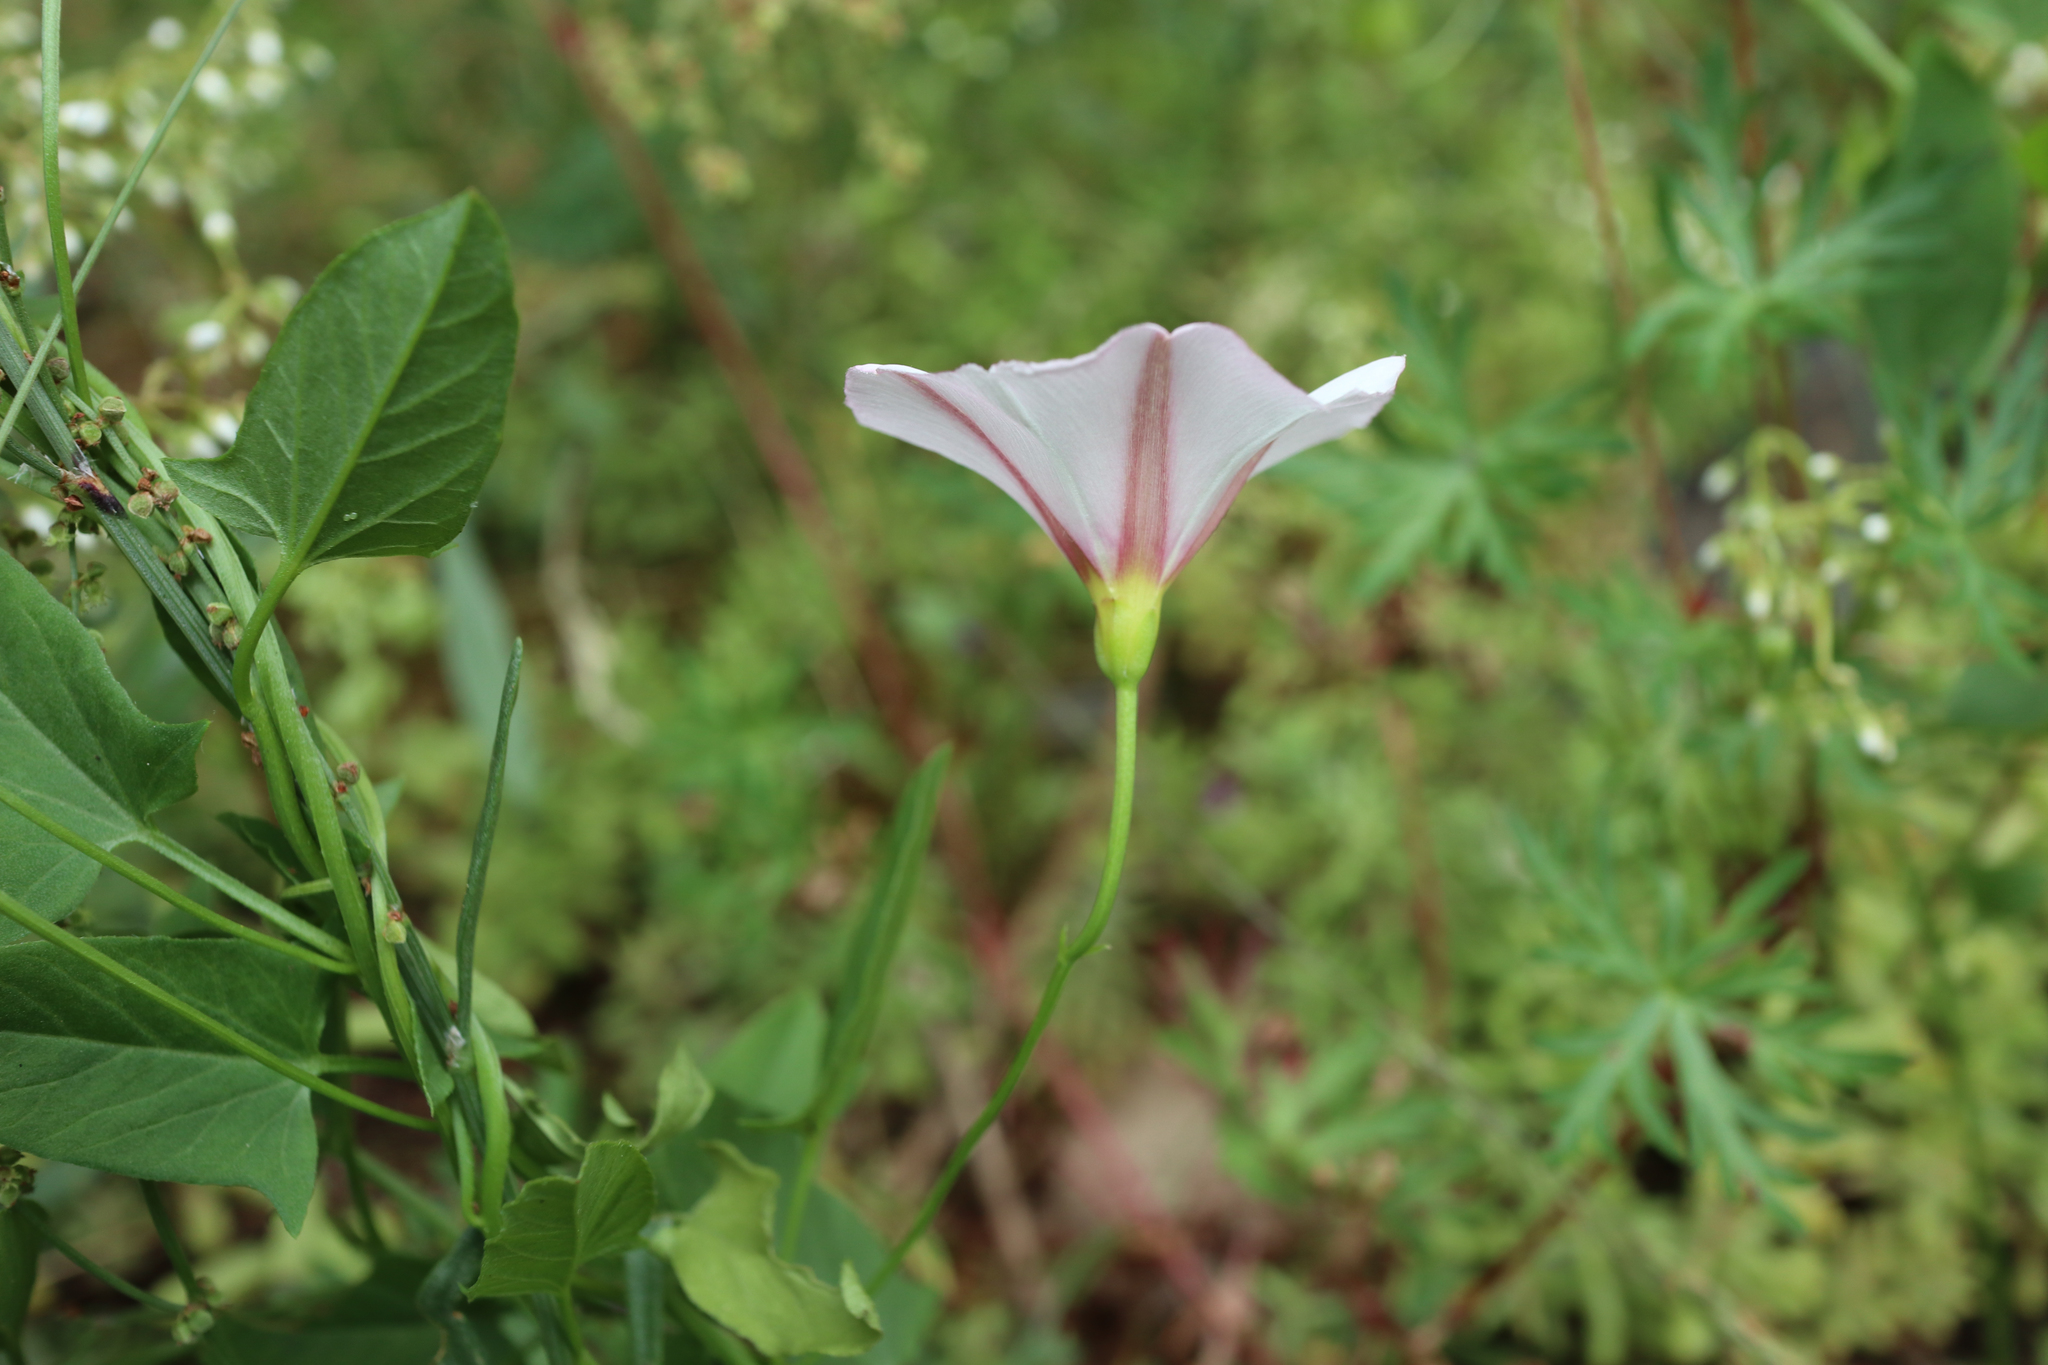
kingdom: Plantae
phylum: Tracheophyta
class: Magnoliopsida
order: Solanales
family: Convolvulaceae
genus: Convolvulus
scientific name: Convolvulus arvensis
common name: Field bindweed
